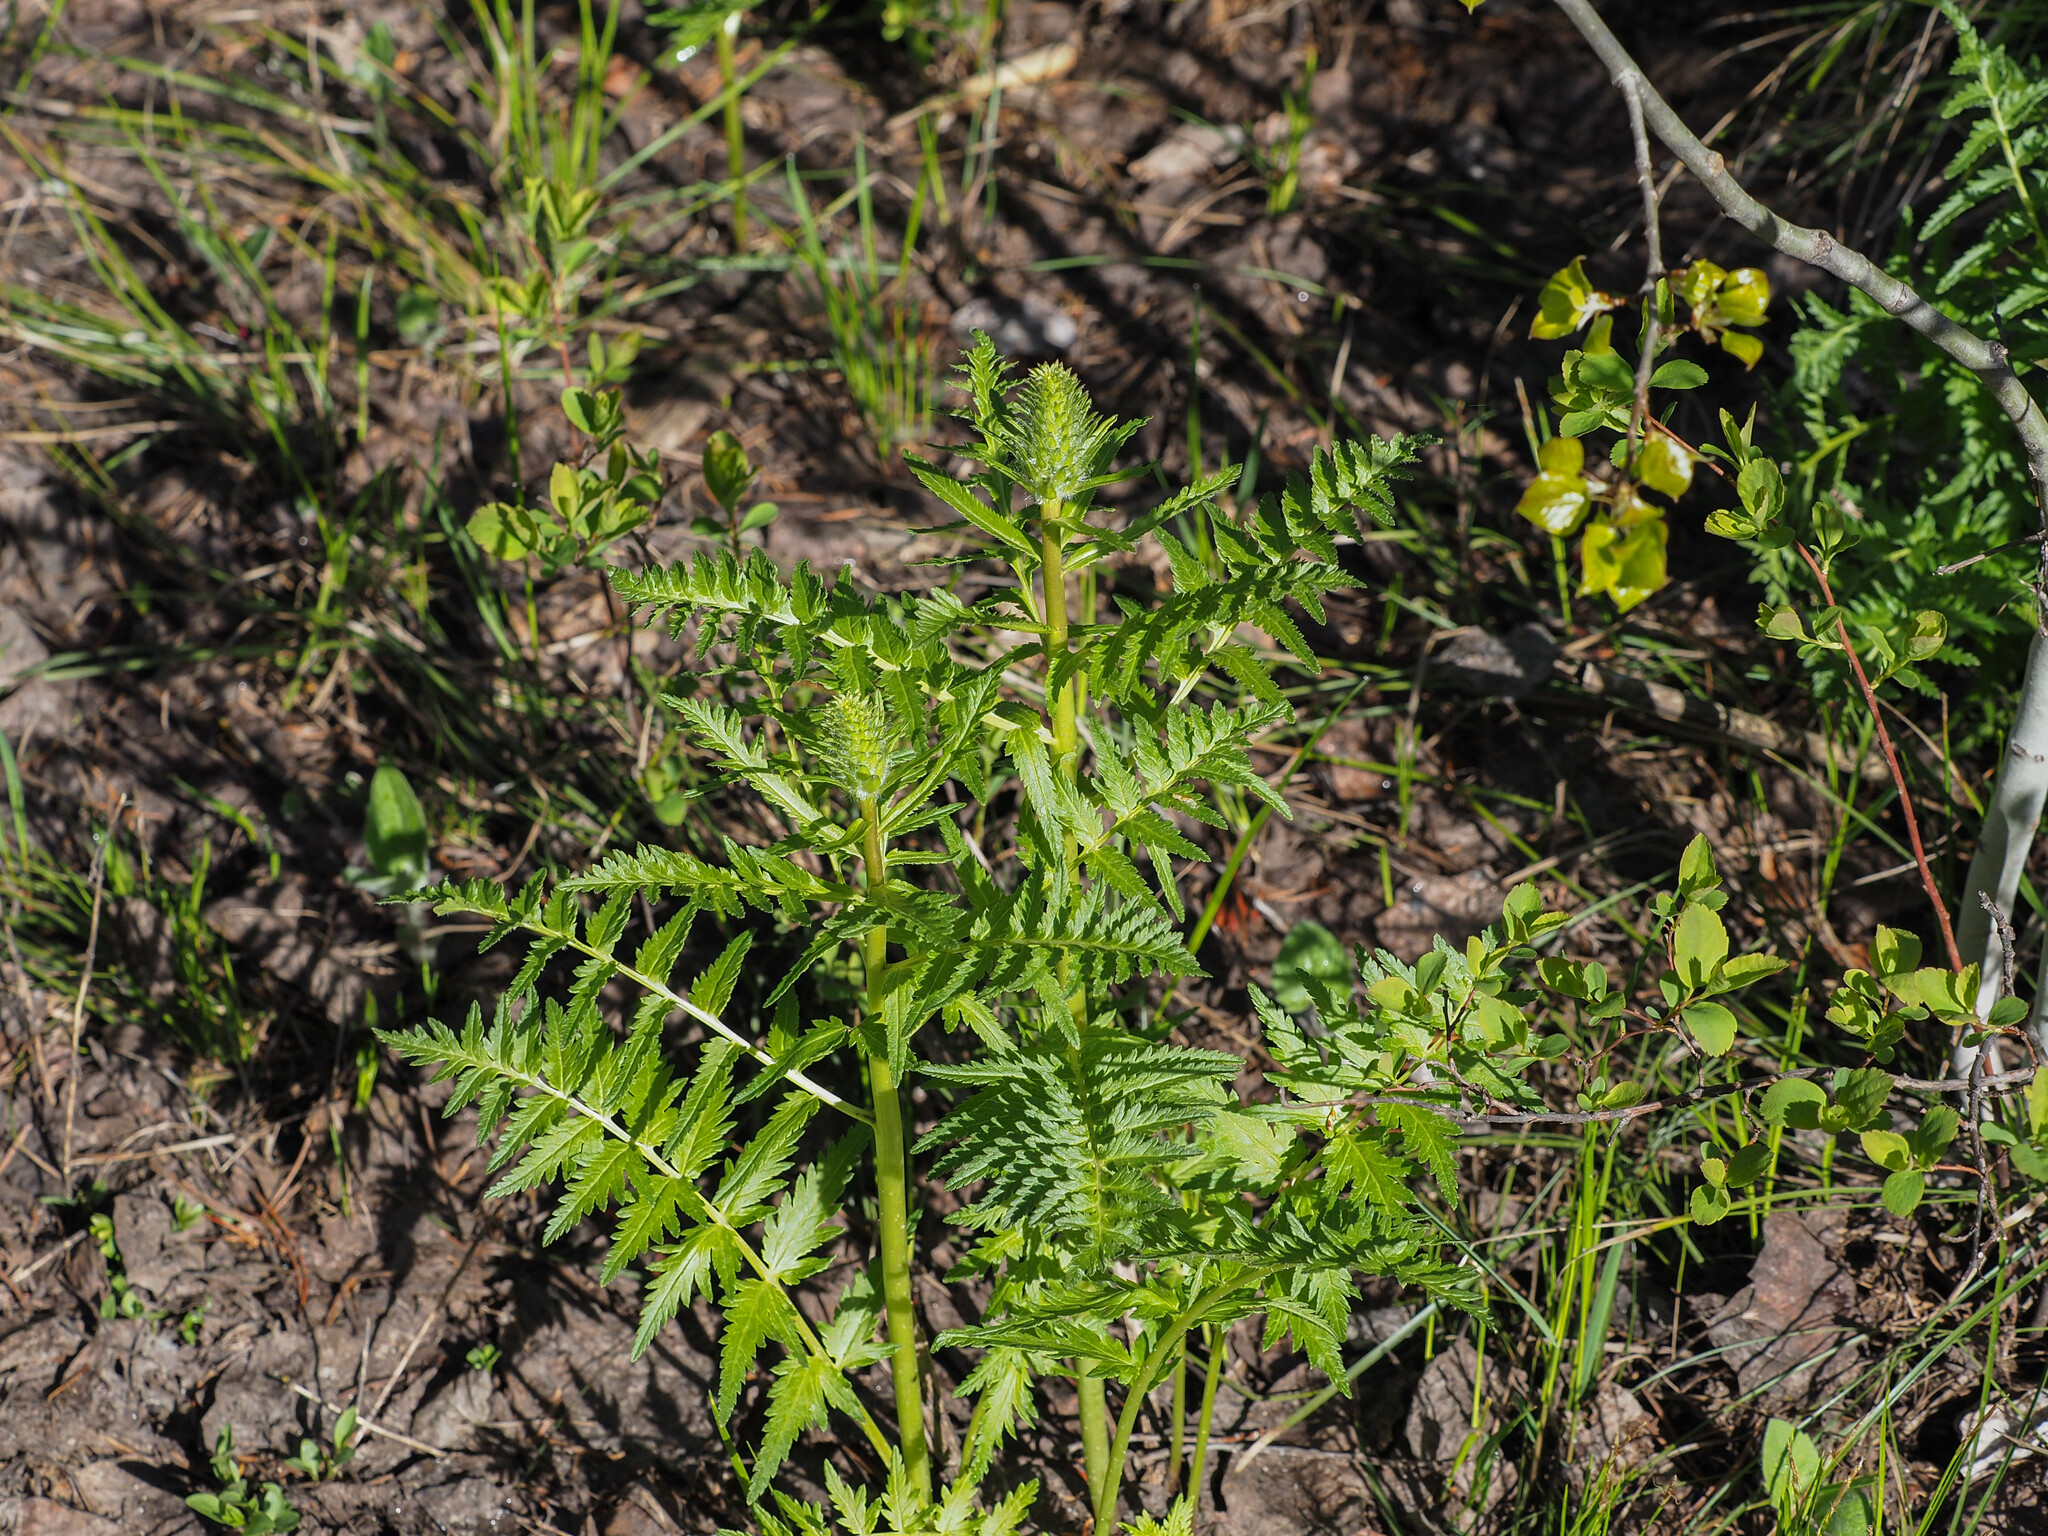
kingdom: Plantae
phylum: Tracheophyta
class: Magnoliopsida
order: Lamiales
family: Orobanchaceae
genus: Pedicularis
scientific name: Pedicularis bracteosa
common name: Bracted lousewort
